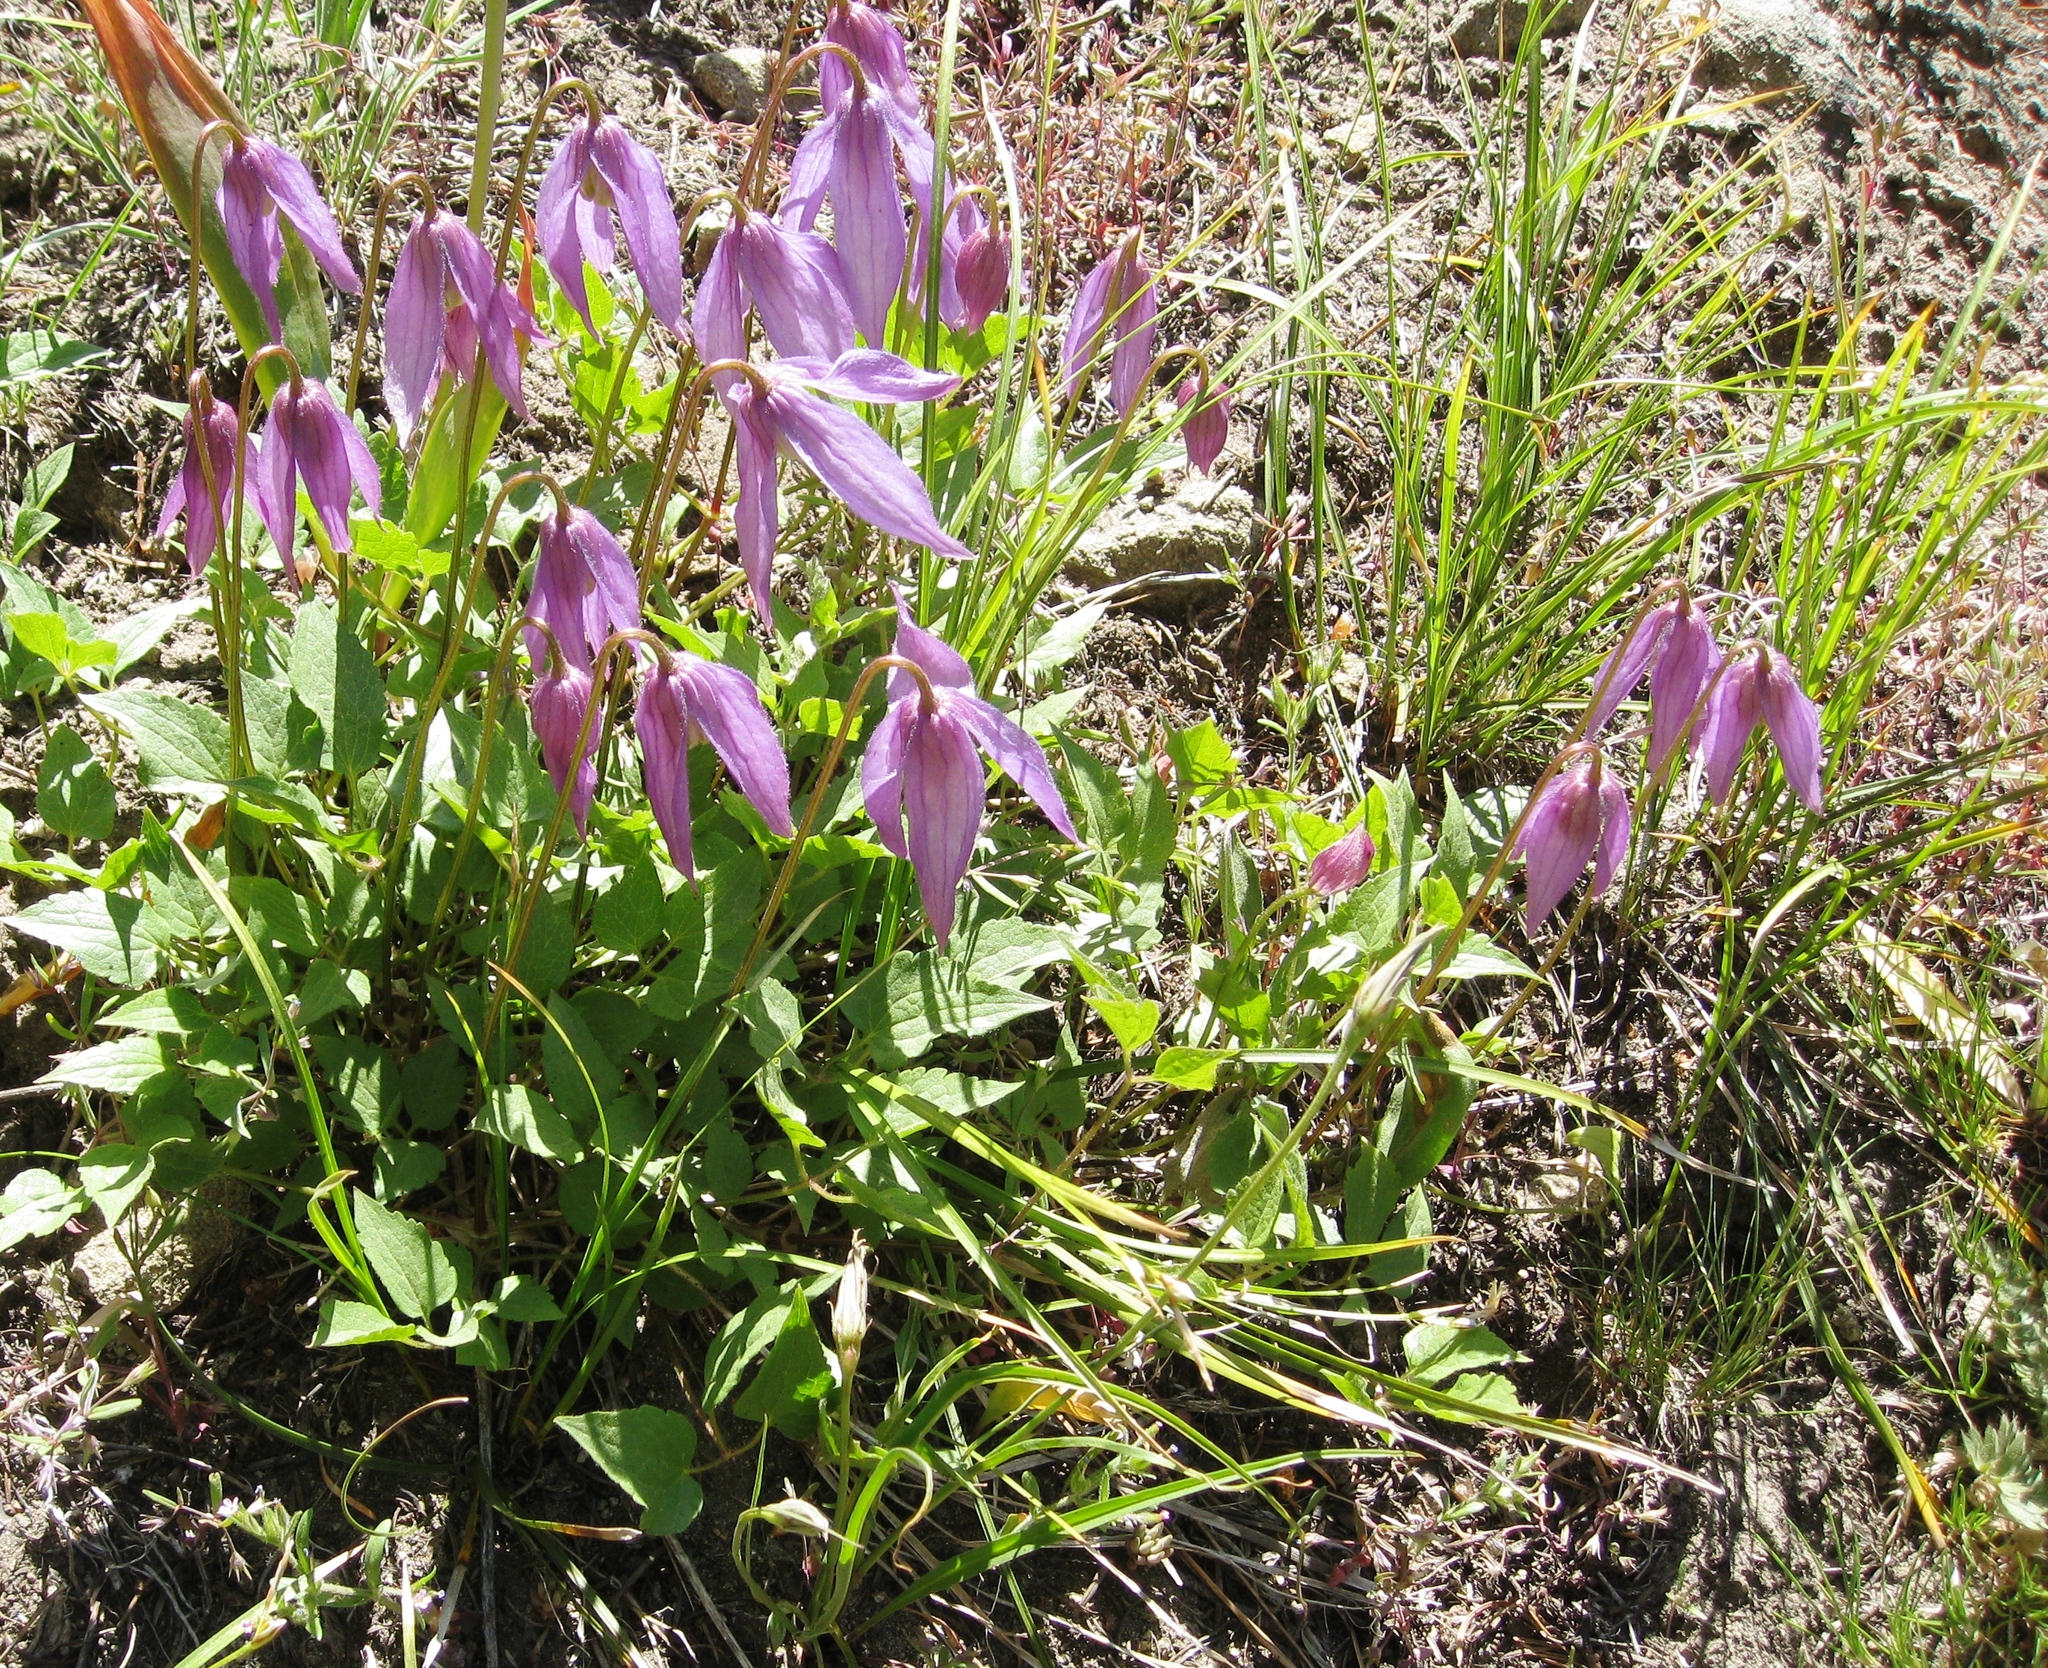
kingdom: Plantae
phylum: Tracheophyta
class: Magnoliopsida
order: Ranunculales
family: Ranunculaceae
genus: Clematis
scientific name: Clematis occidentalis
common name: Purple clematis
